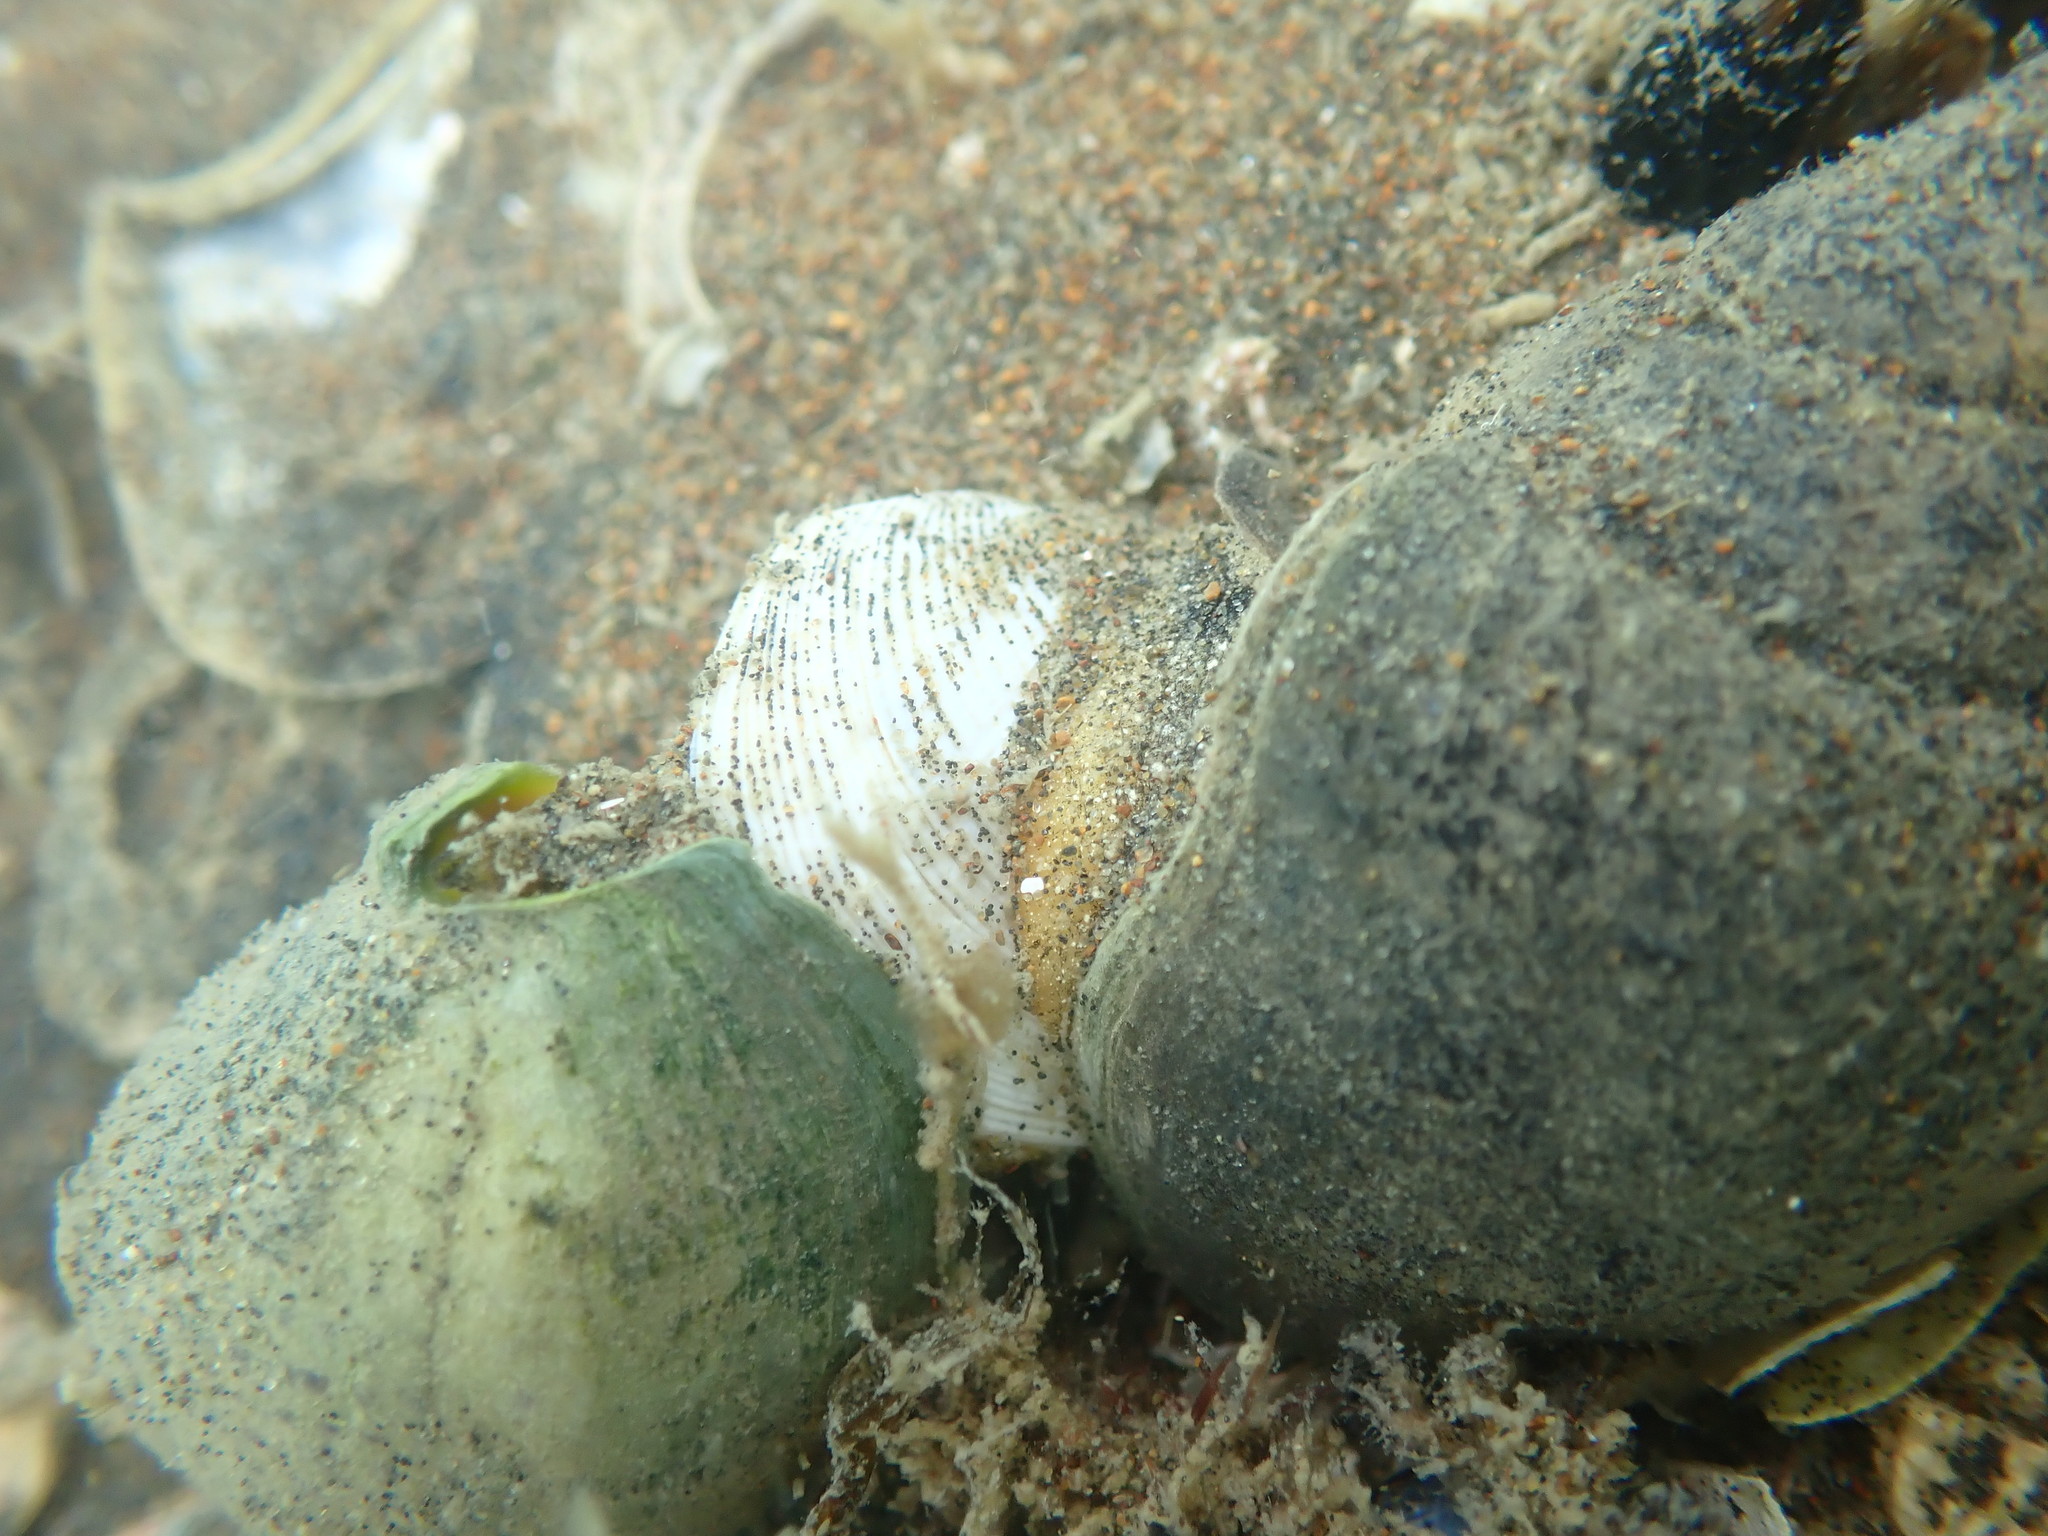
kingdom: Animalia
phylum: Mollusca
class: Gastropoda
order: Neogastropoda
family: Cominellidae
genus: Cominella
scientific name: Cominella adspersa
